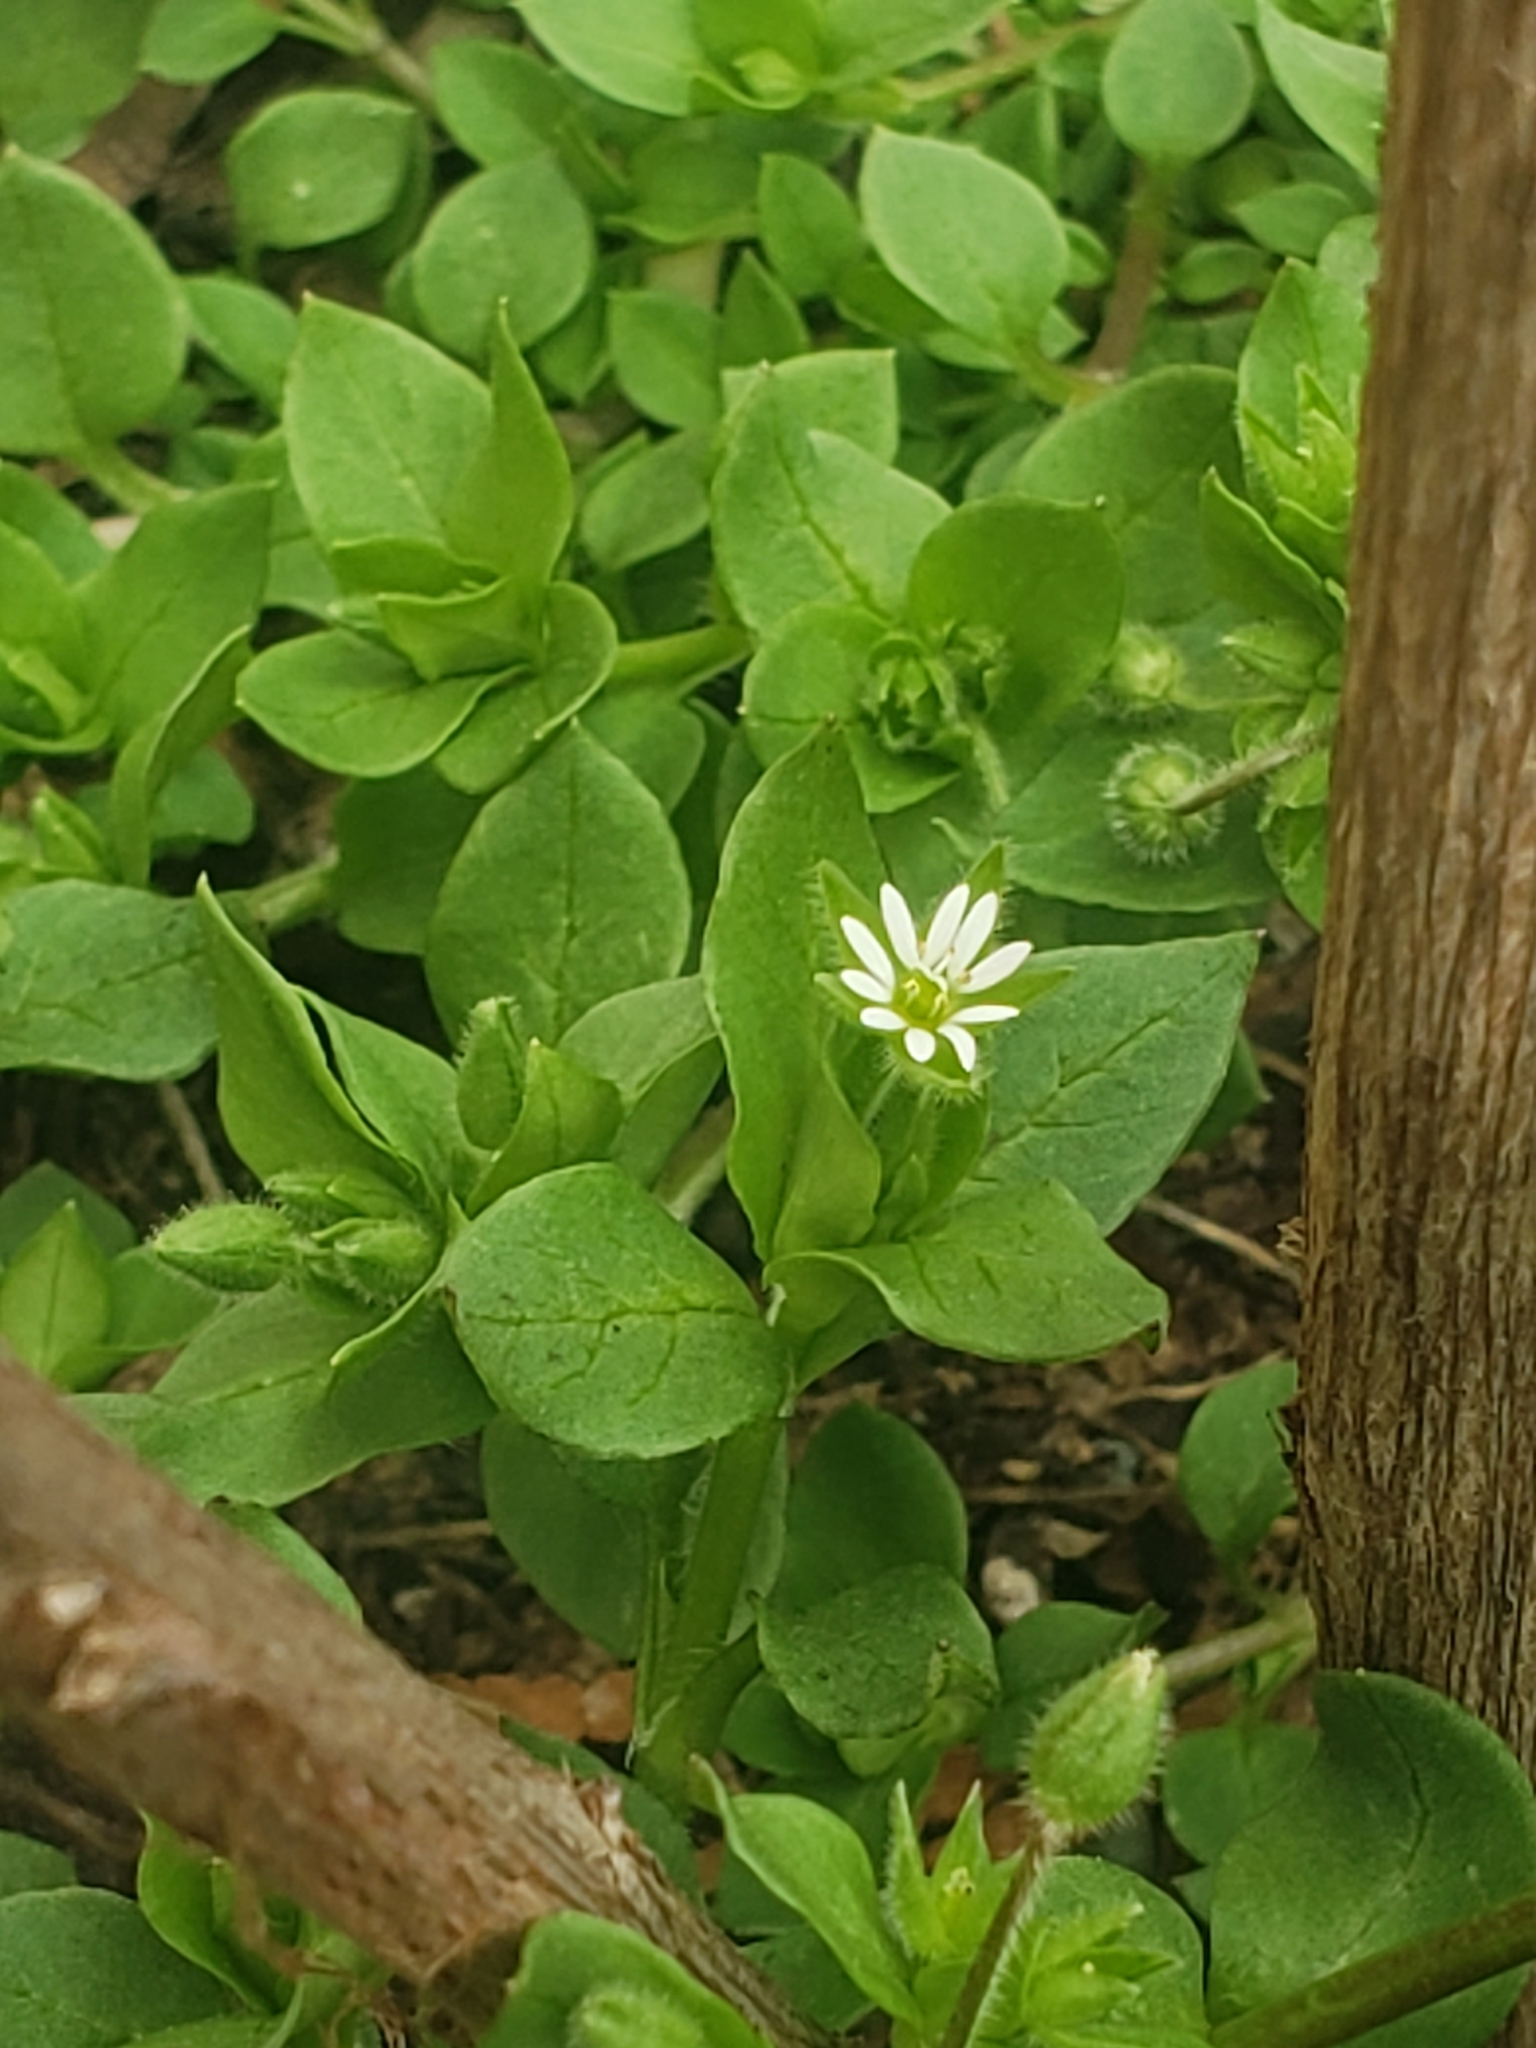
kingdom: Plantae
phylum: Tracheophyta
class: Magnoliopsida
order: Caryophyllales
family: Caryophyllaceae
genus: Stellaria
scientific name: Stellaria media
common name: Common chickweed
